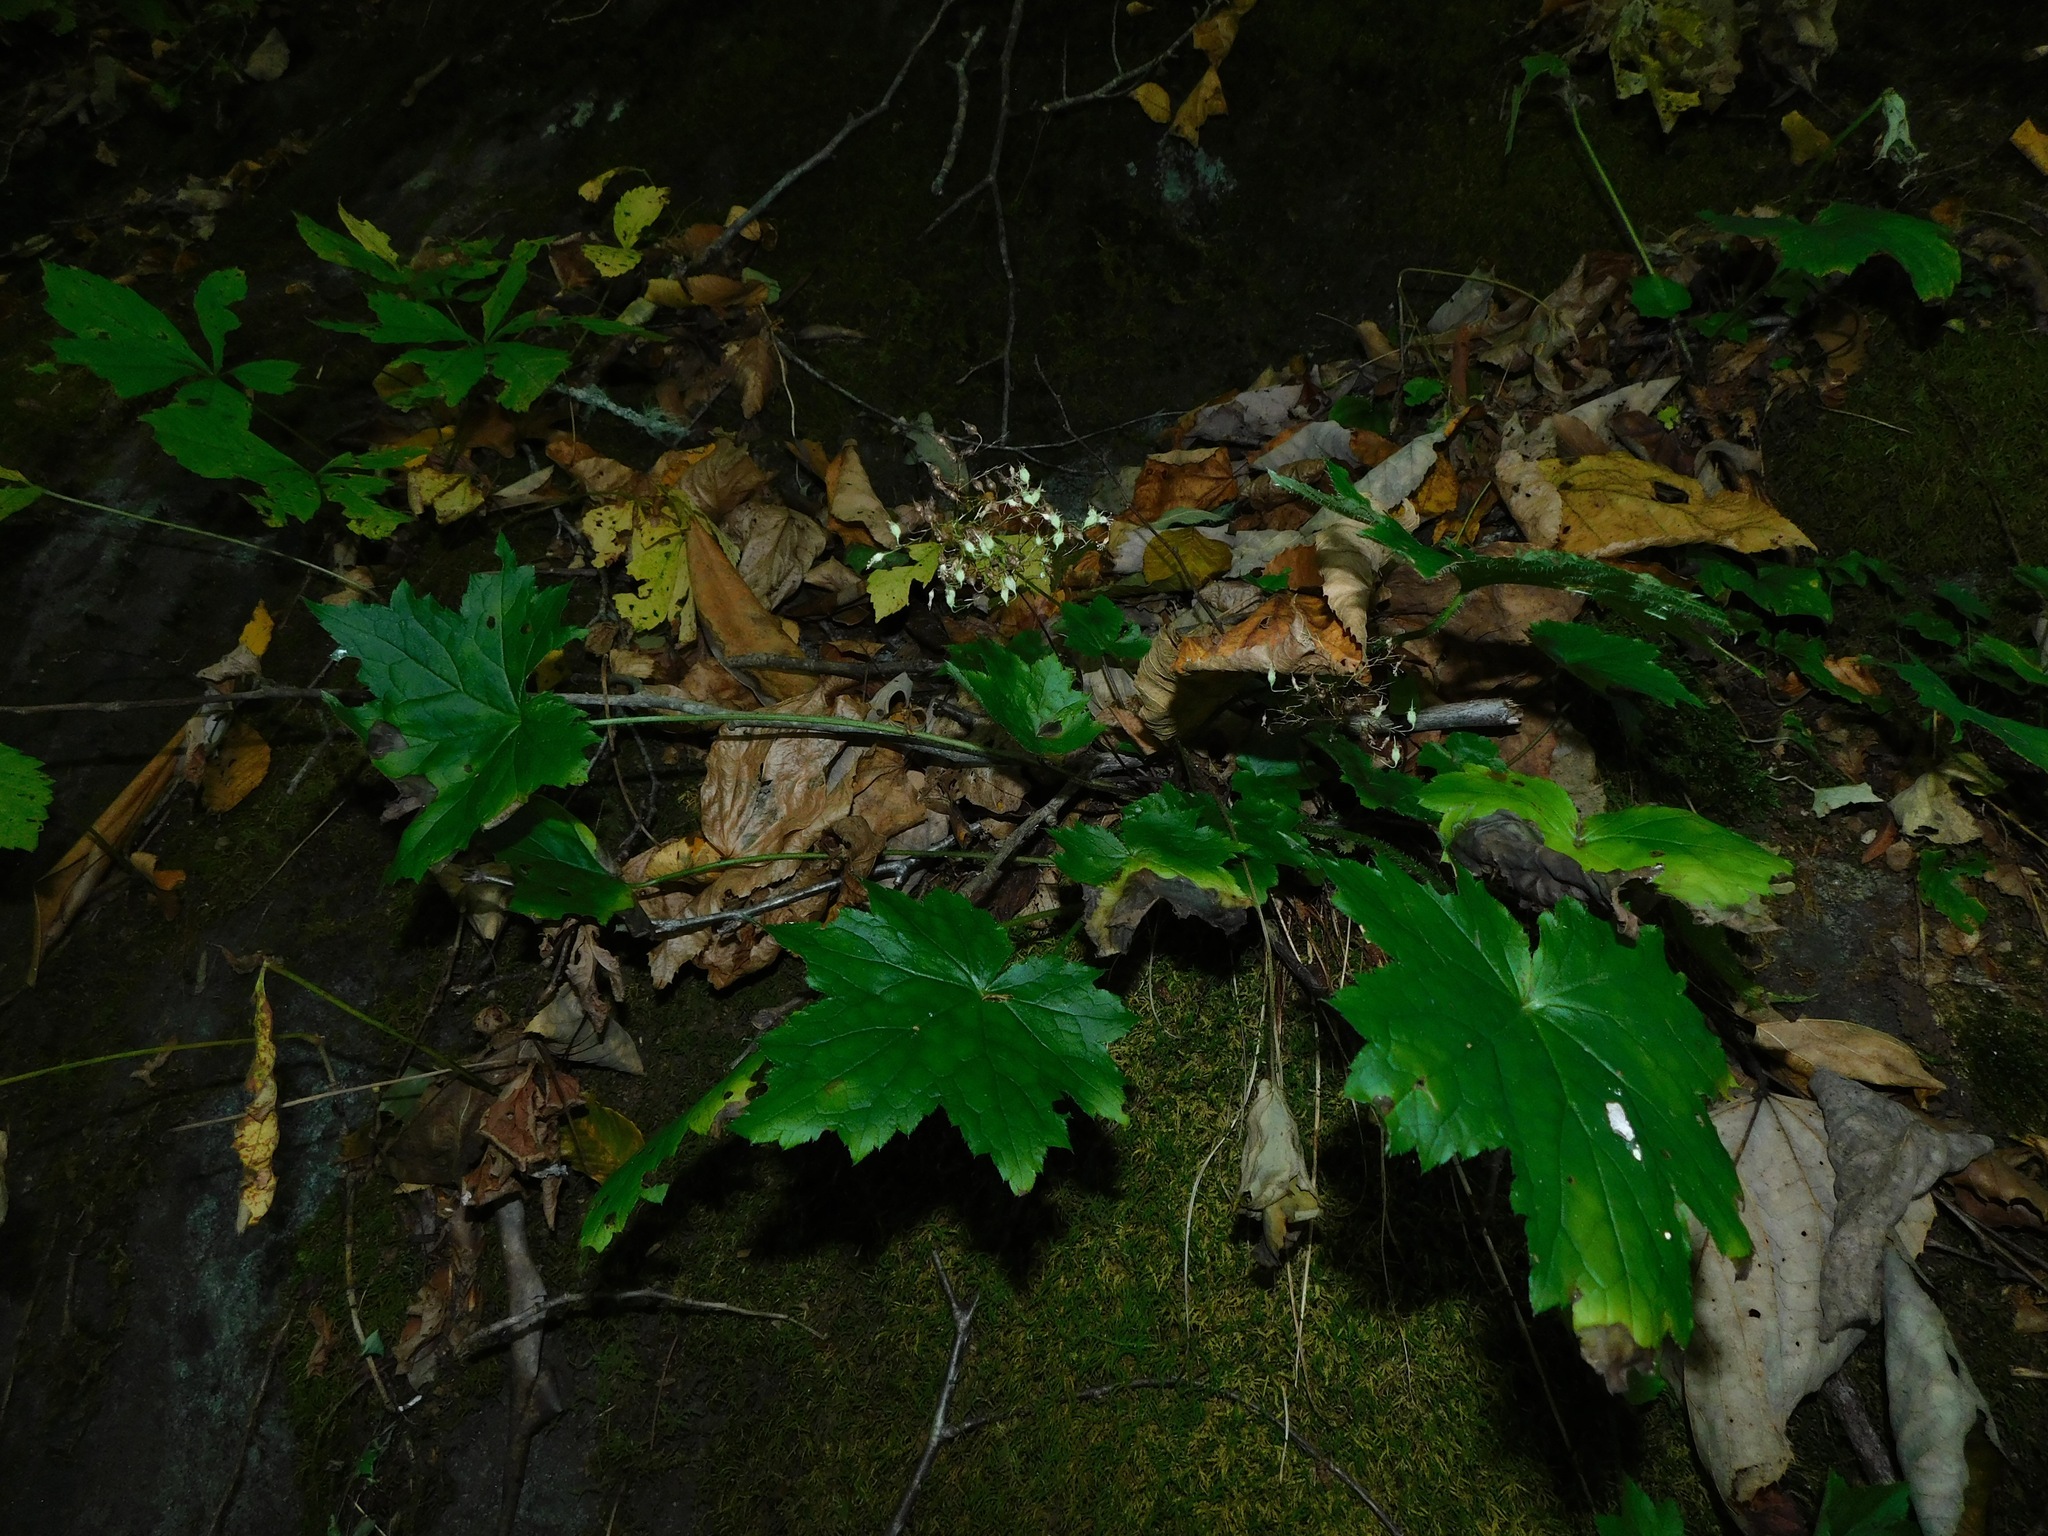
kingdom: Plantae
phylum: Tracheophyta
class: Magnoliopsida
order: Saxifragales
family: Saxifragaceae
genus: Heuchera
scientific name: Heuchera villosa
